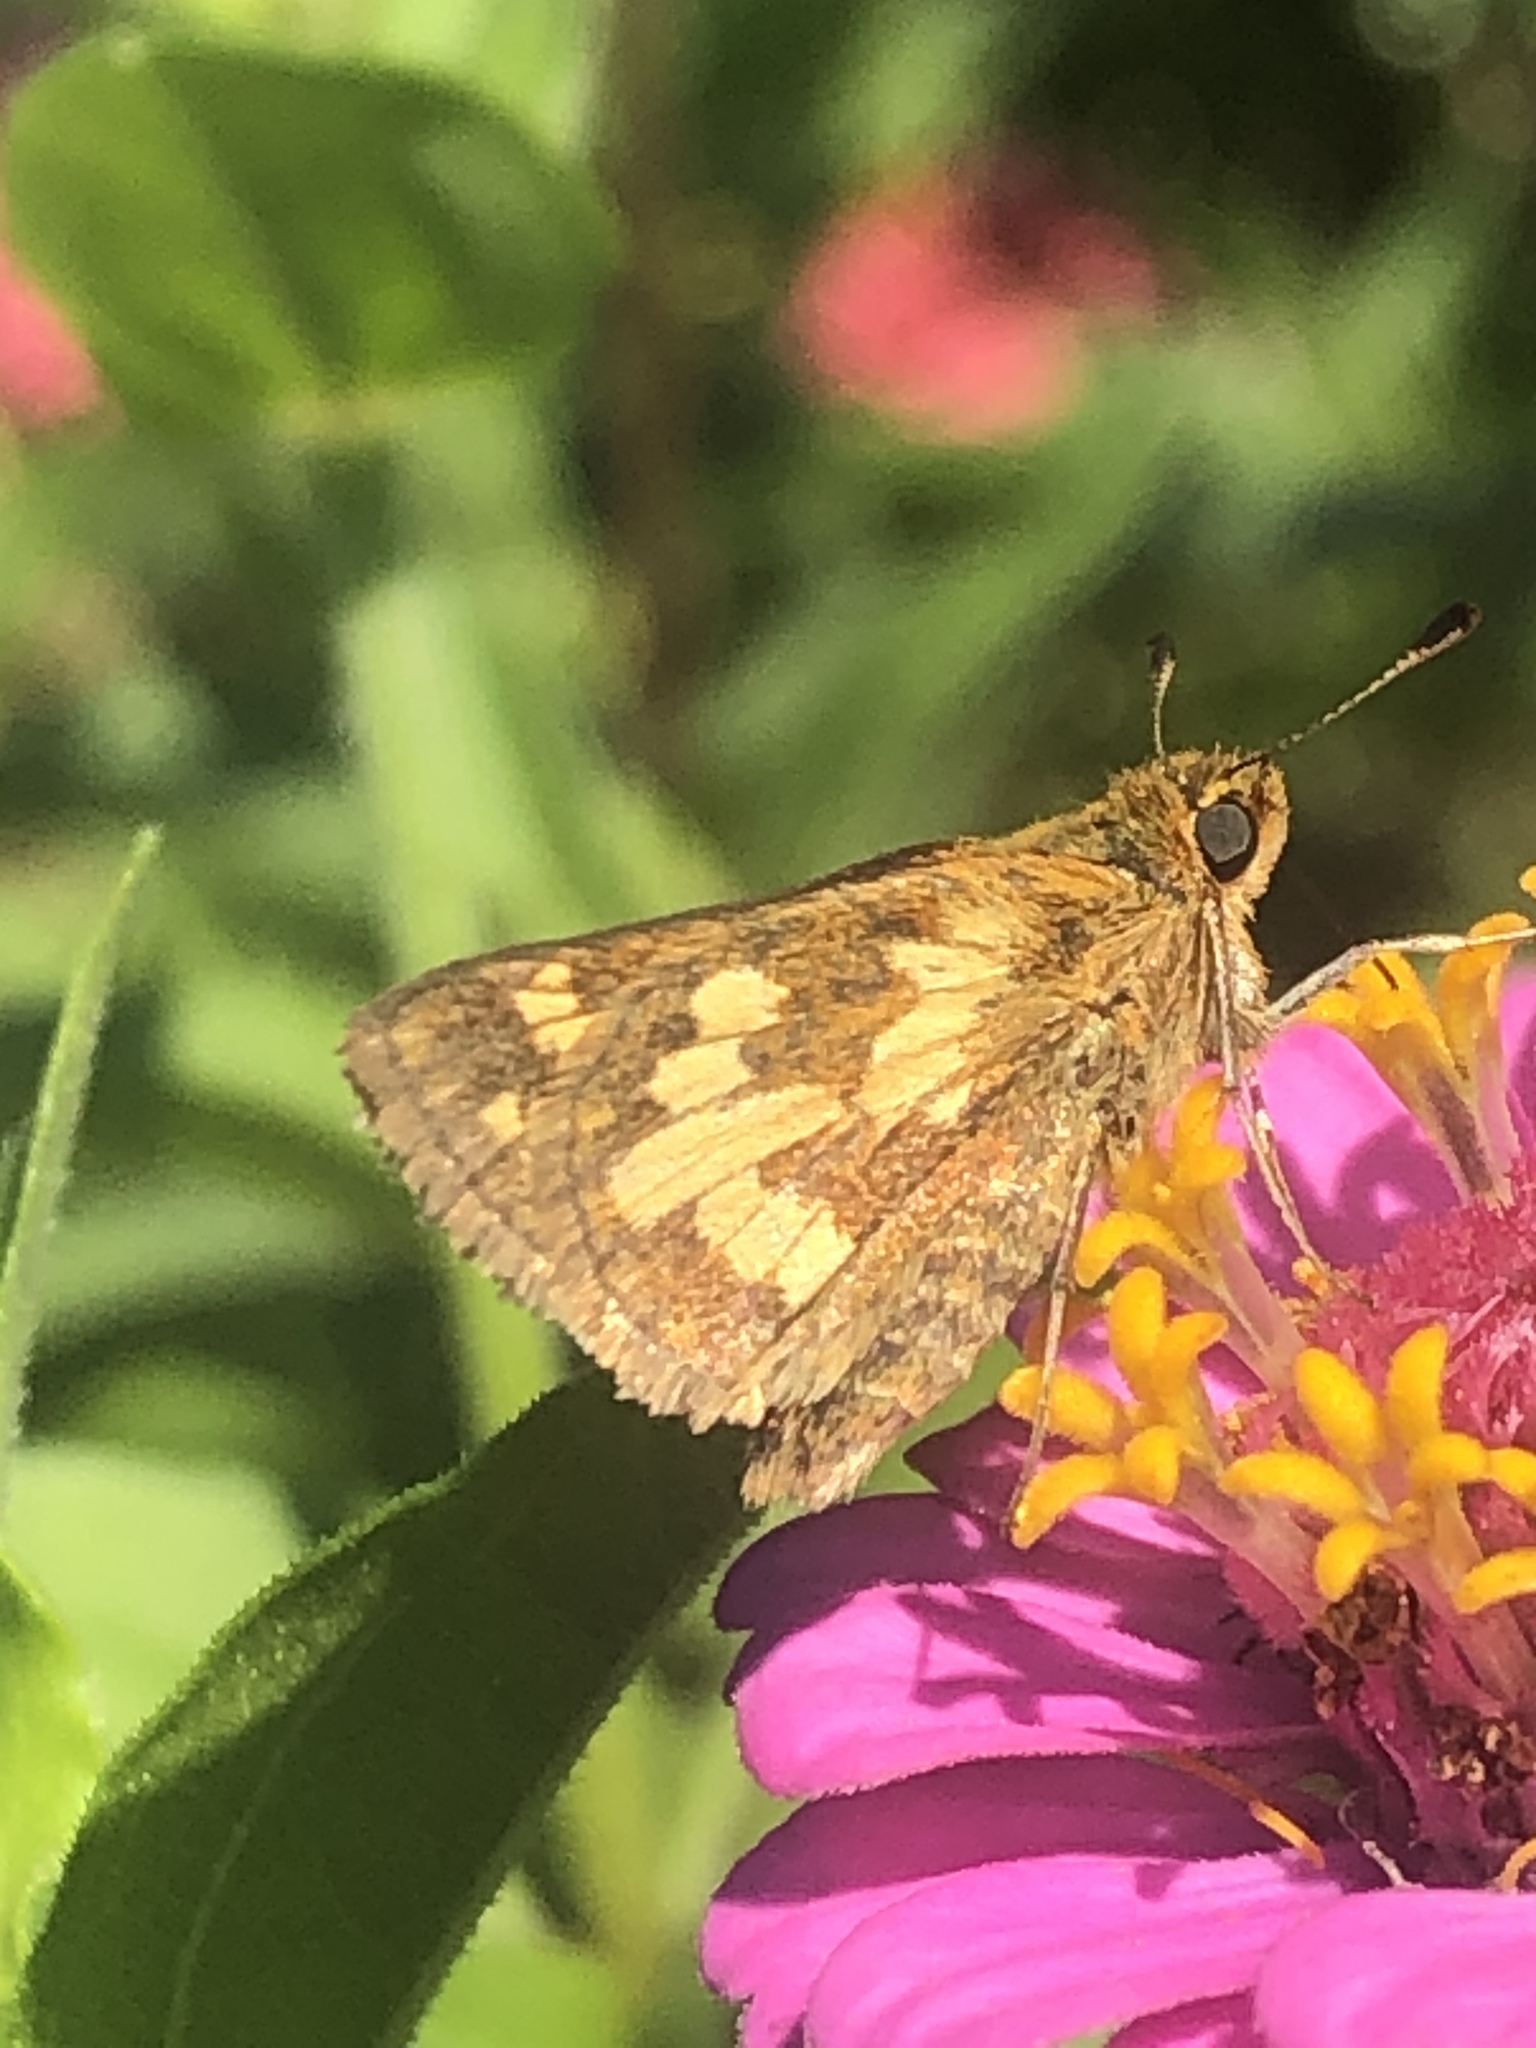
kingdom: Animalia
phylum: Arthropoda
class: Insecta
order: Lepidoptera
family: Hesperiidae
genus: Polites
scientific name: Polites coras
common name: Peck's skipper
